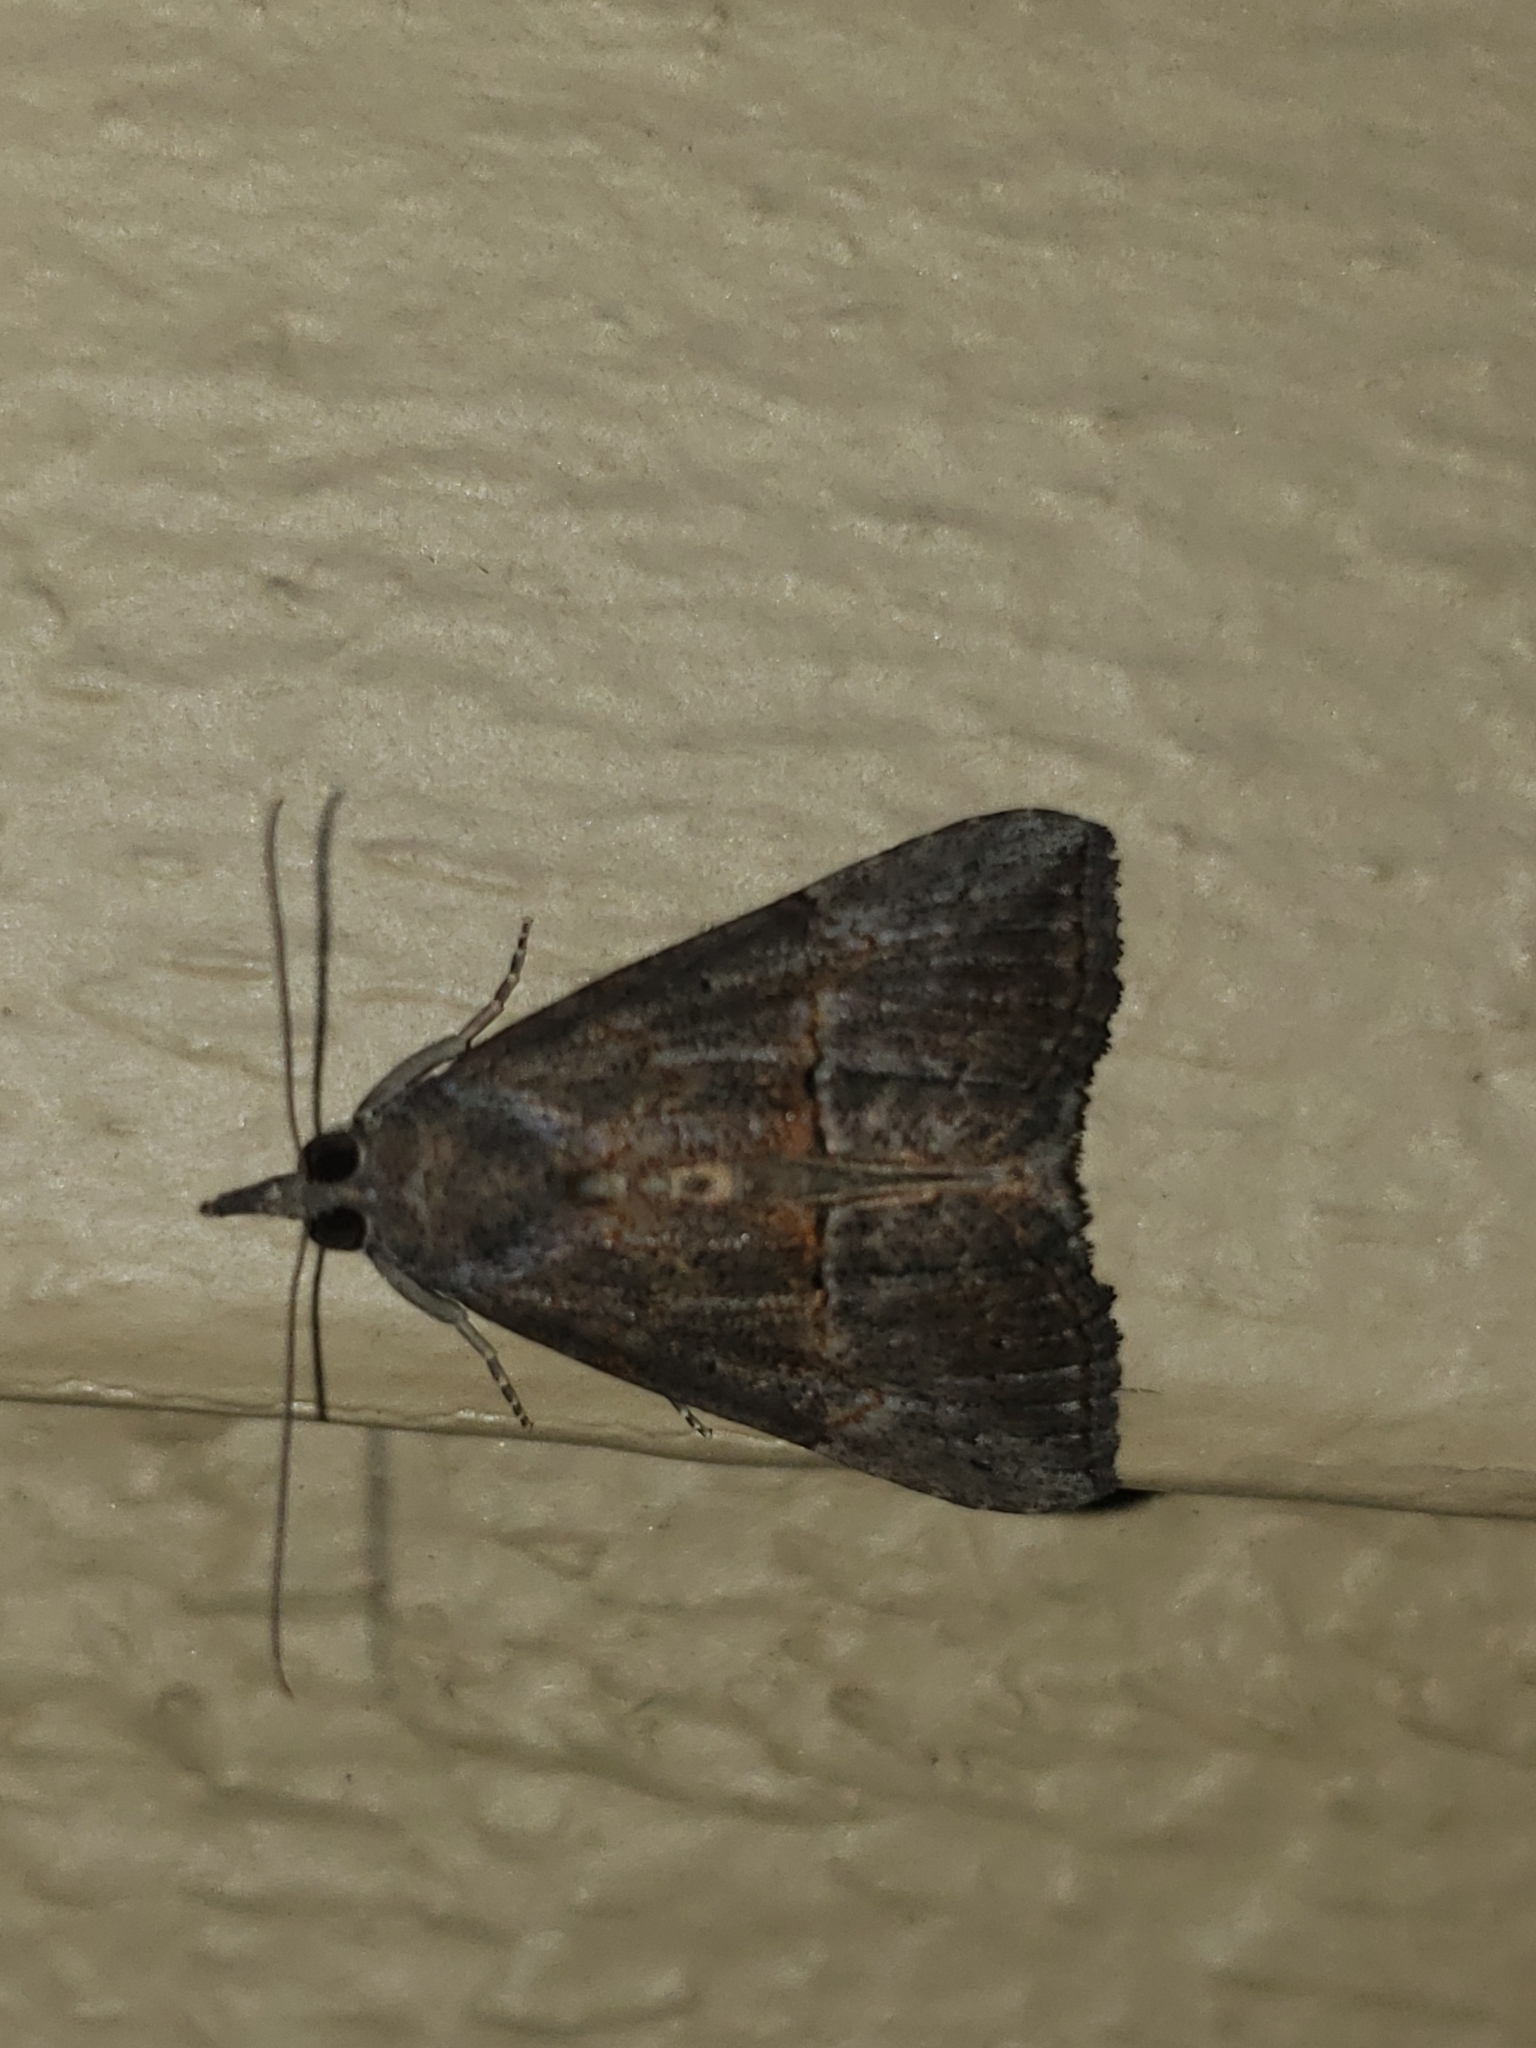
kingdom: Animalia
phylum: Arthropoda
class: Insecta
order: Lepidoptera
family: Erebidae
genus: Hypena
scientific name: Hypena scabra
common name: Green cloverworm
